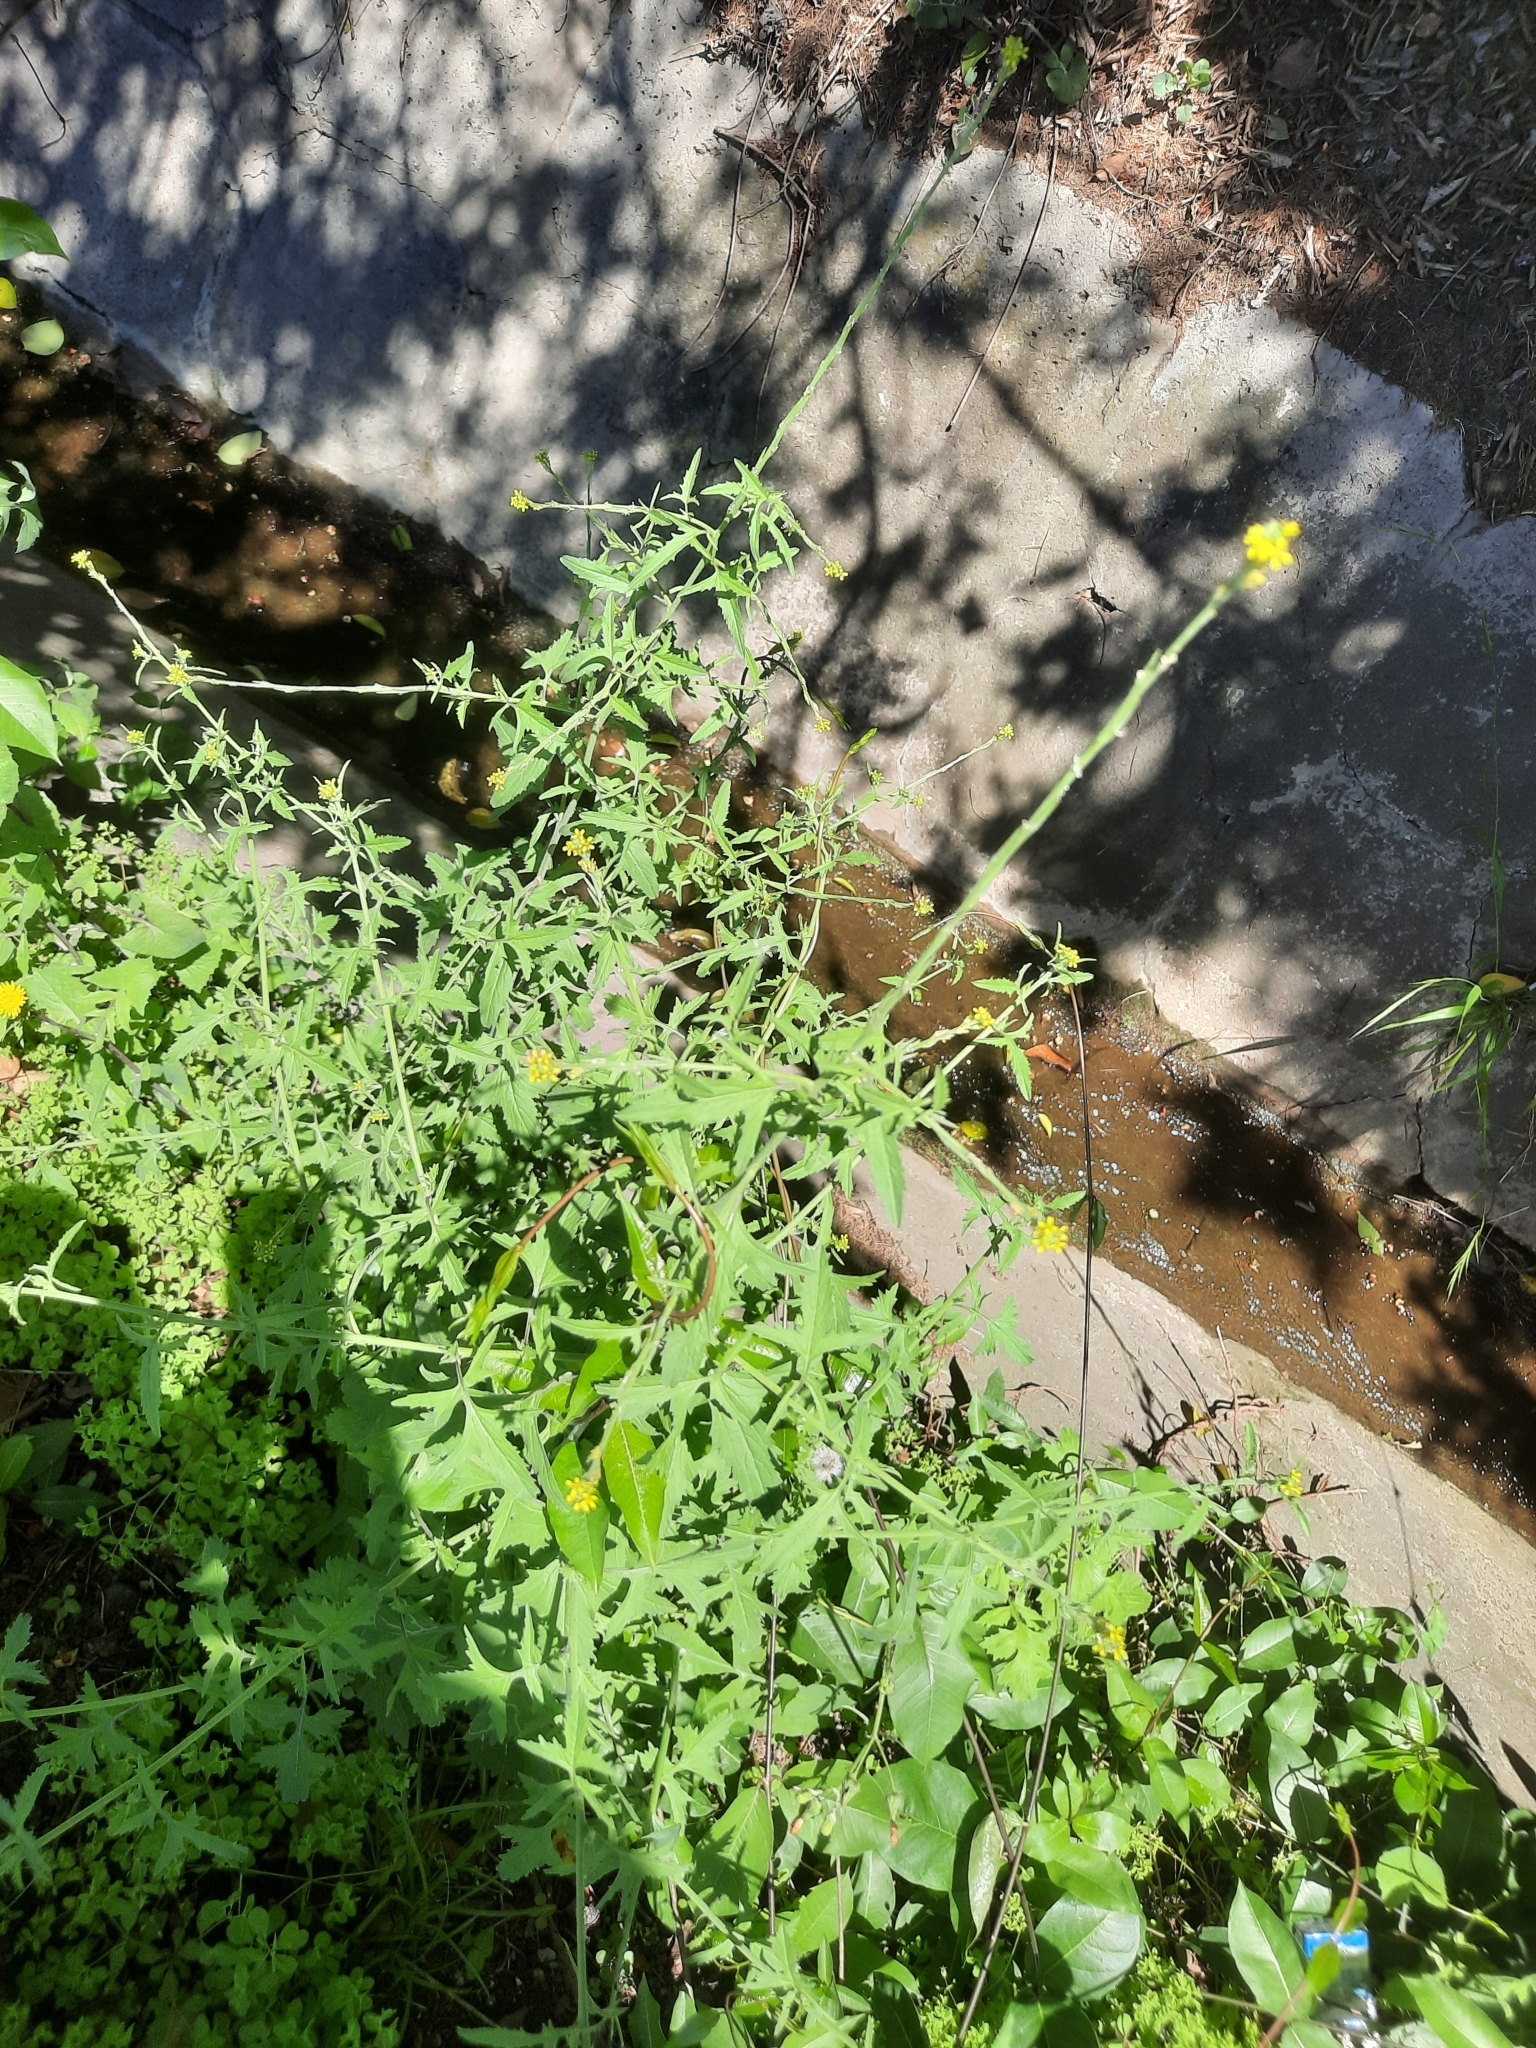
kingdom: Plantae
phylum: Tracheophyta
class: Magnoliopsida
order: Brassicales
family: Brassicaceae
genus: Sisymbrium
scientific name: Sisymbrium officinale
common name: Hedge mustard
